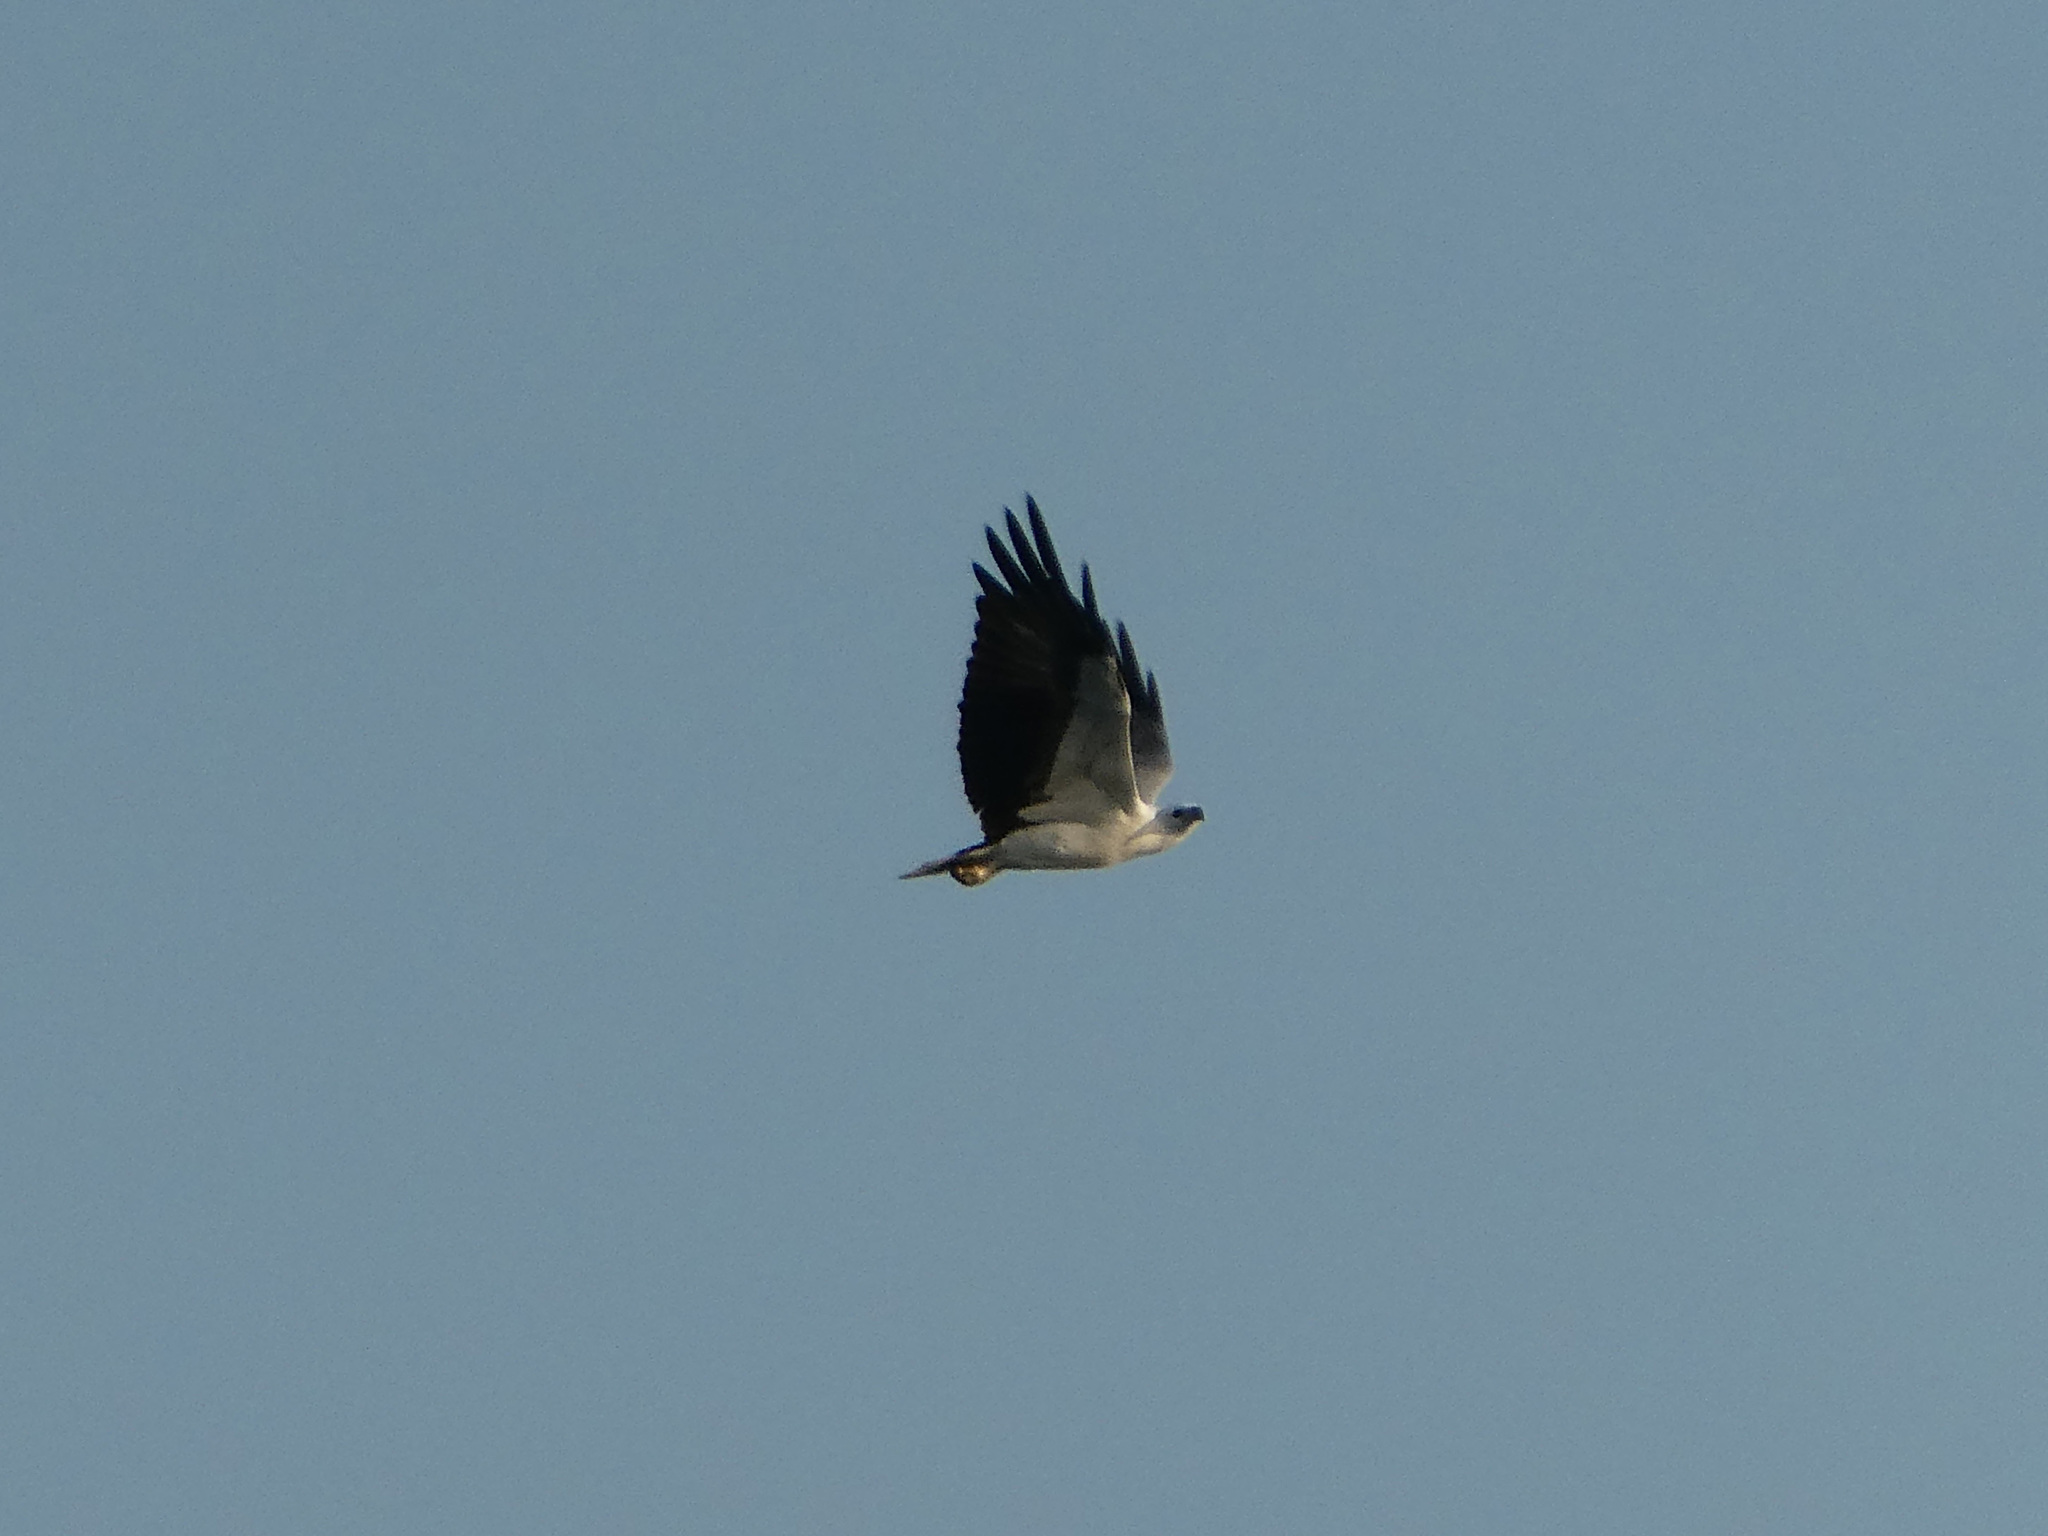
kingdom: Animalia
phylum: Chordata
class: Aves
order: Accipitriformes
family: Accipitridae
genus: Haliaeetus
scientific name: Haliaeetus leucogaster
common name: White-bellied sea eagle
